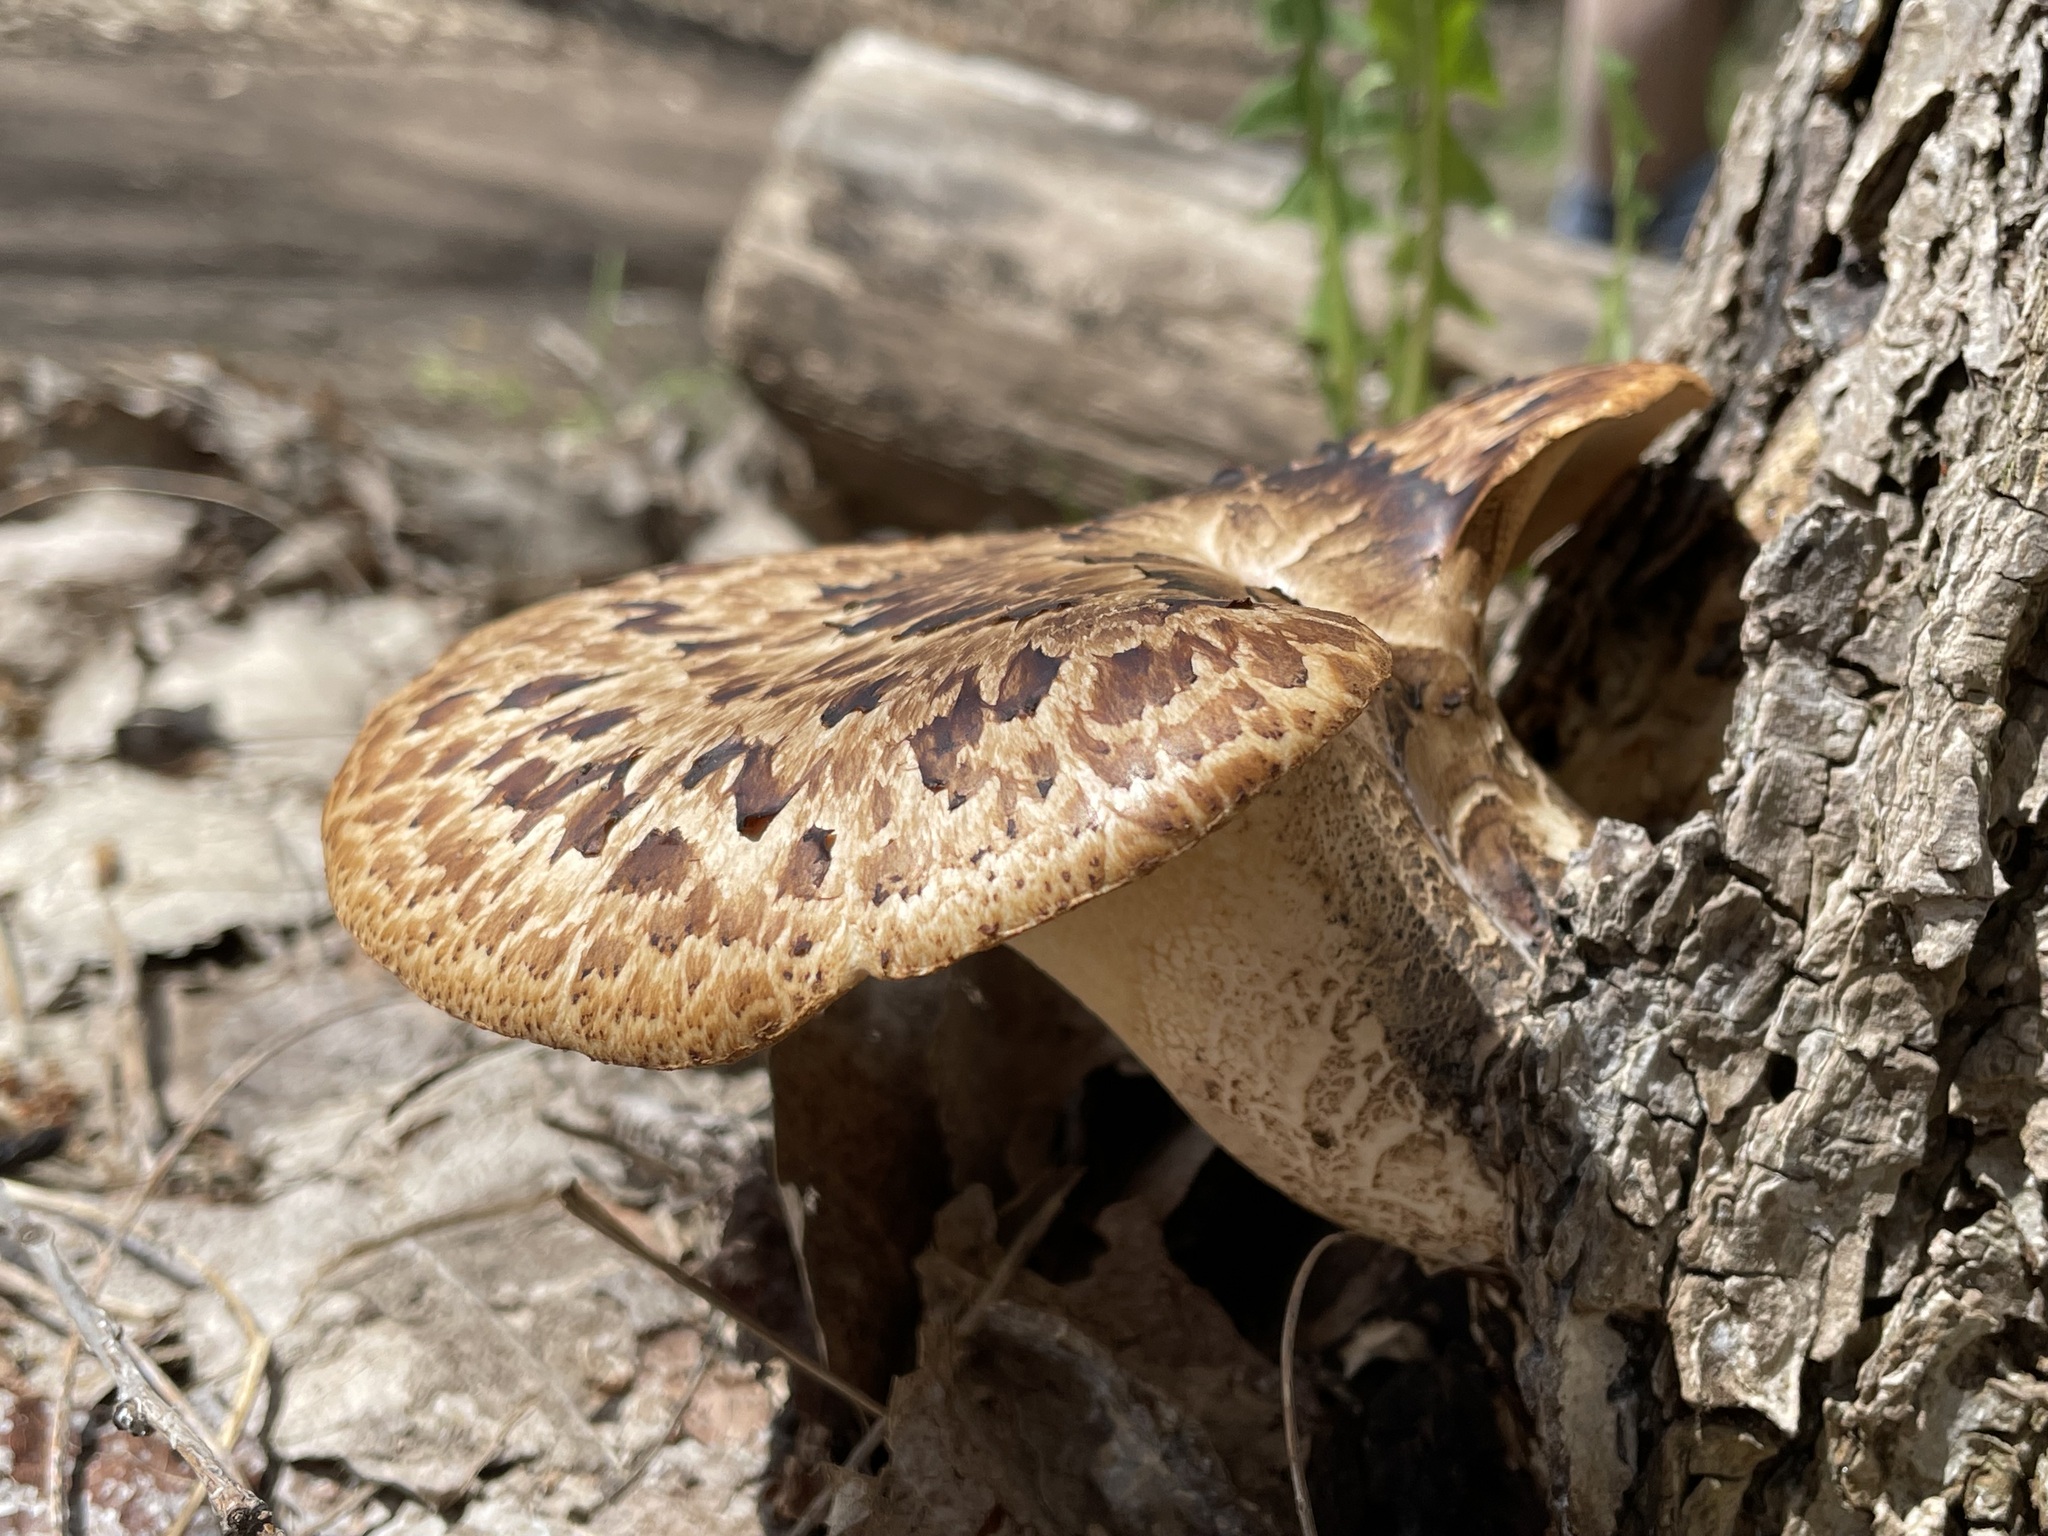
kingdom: Fungi
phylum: Basidiomycota
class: Agaricomycetes
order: Polyporales
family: Polyporaceae
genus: Cerioporus
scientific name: Cerioporus squamosus
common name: Dryad's saddle
